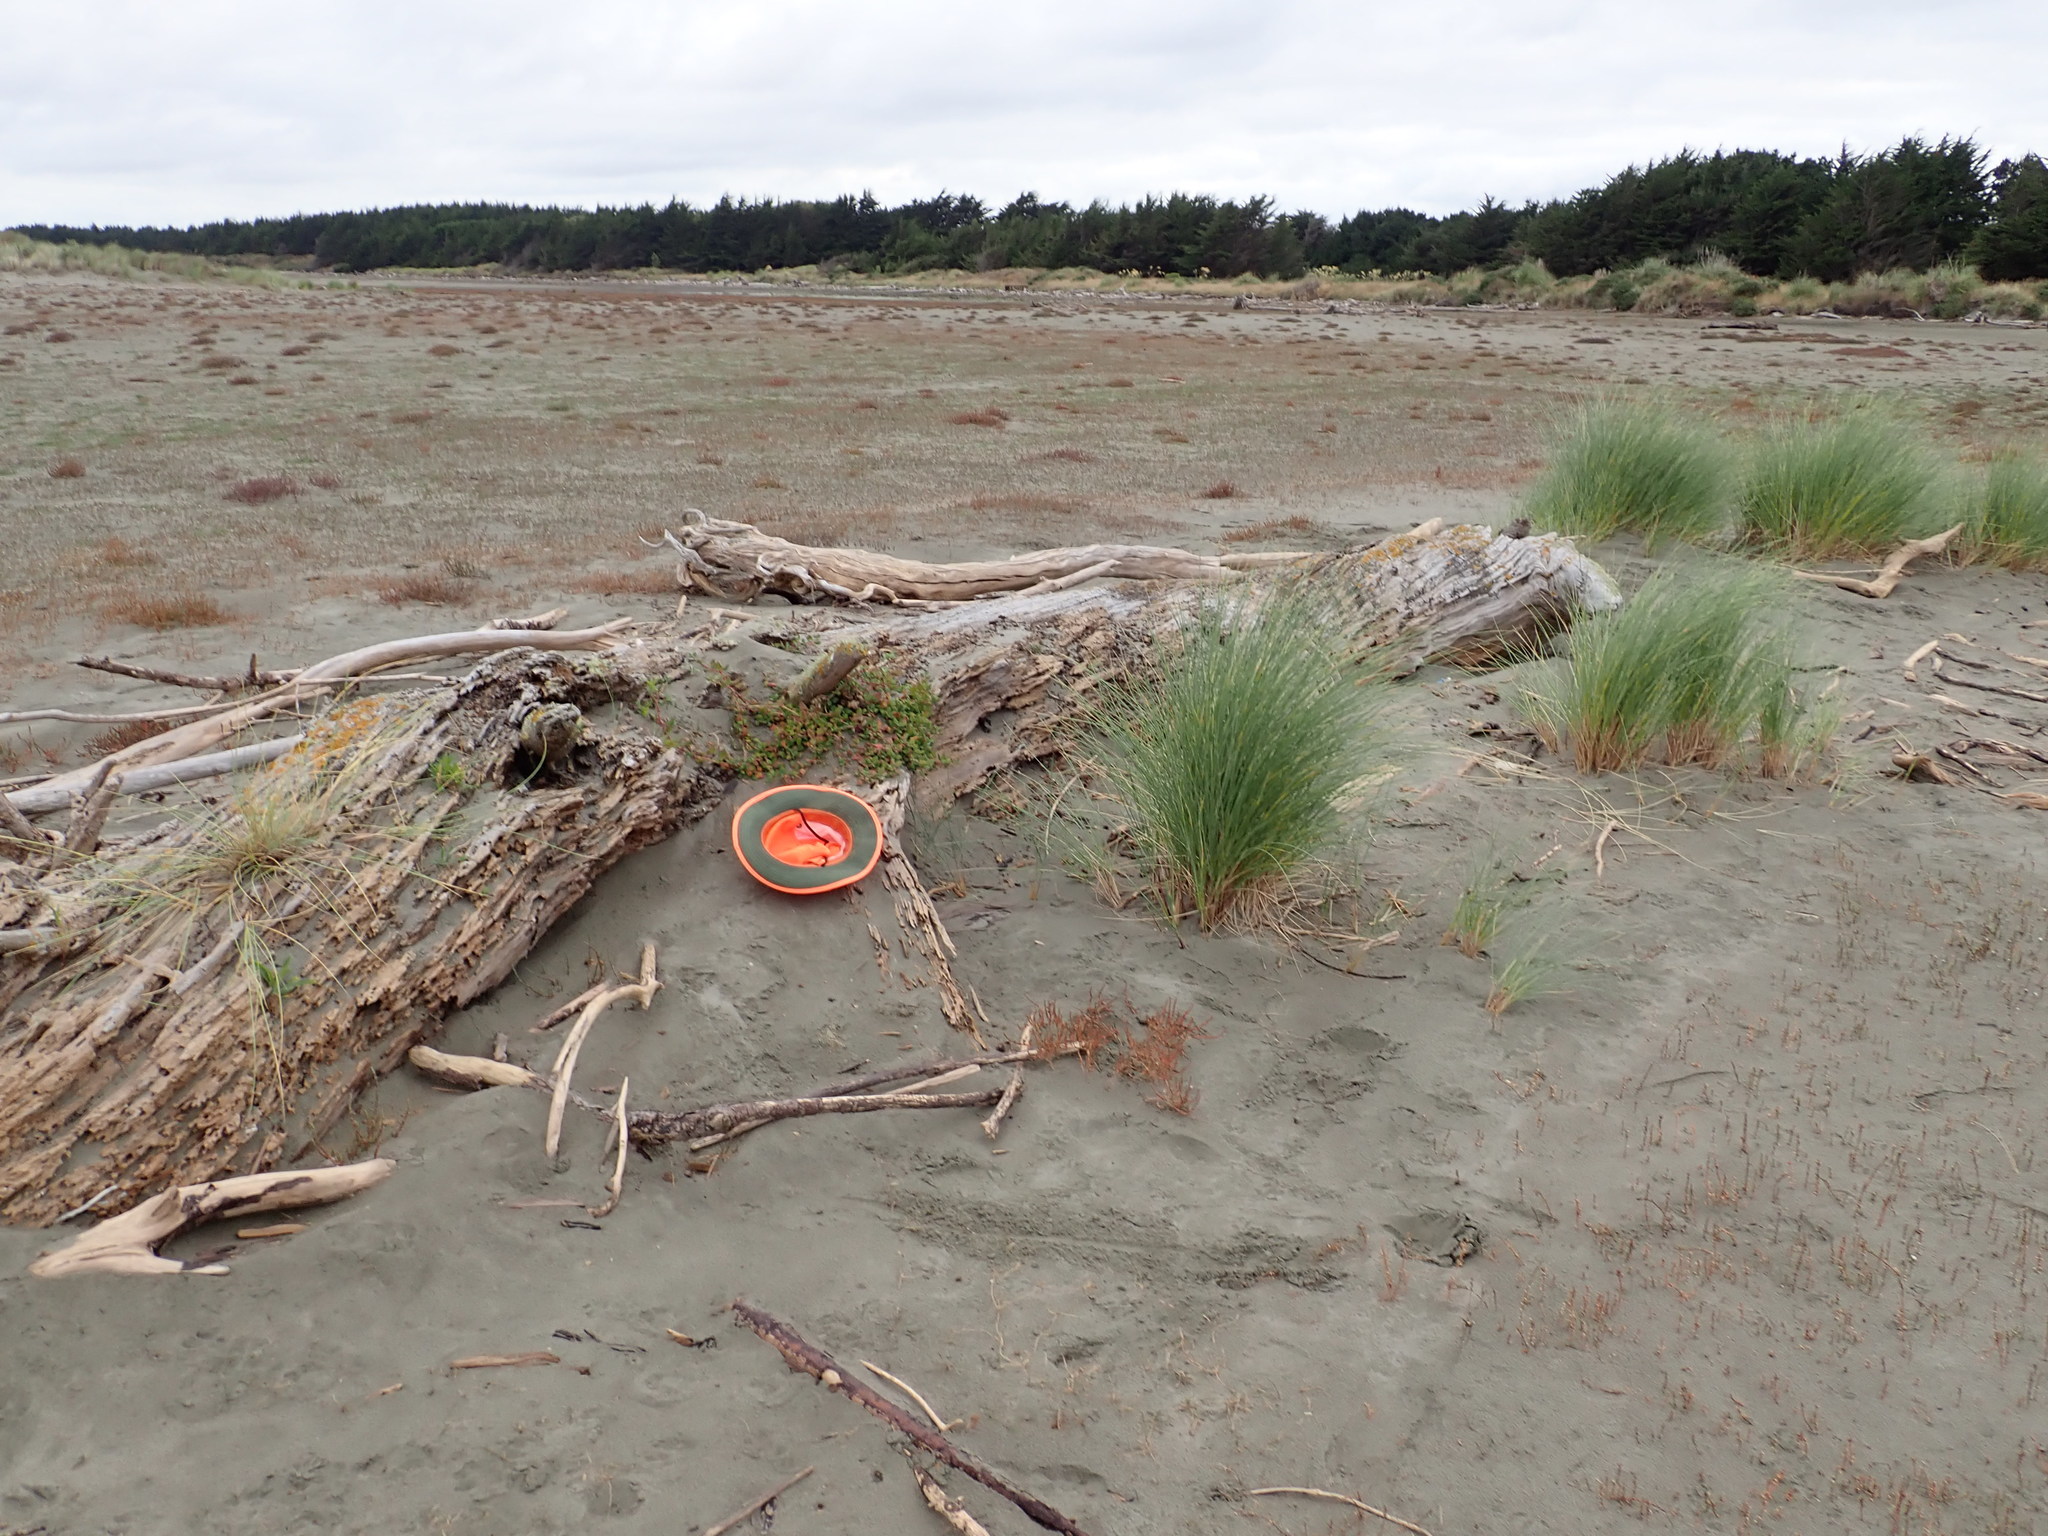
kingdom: Plantae
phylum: Tracheophyta
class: Magnoliopsida
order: Caryophyllales
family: Aizoaceae
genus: Tetragonia
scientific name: Tetragonia implexicoma
